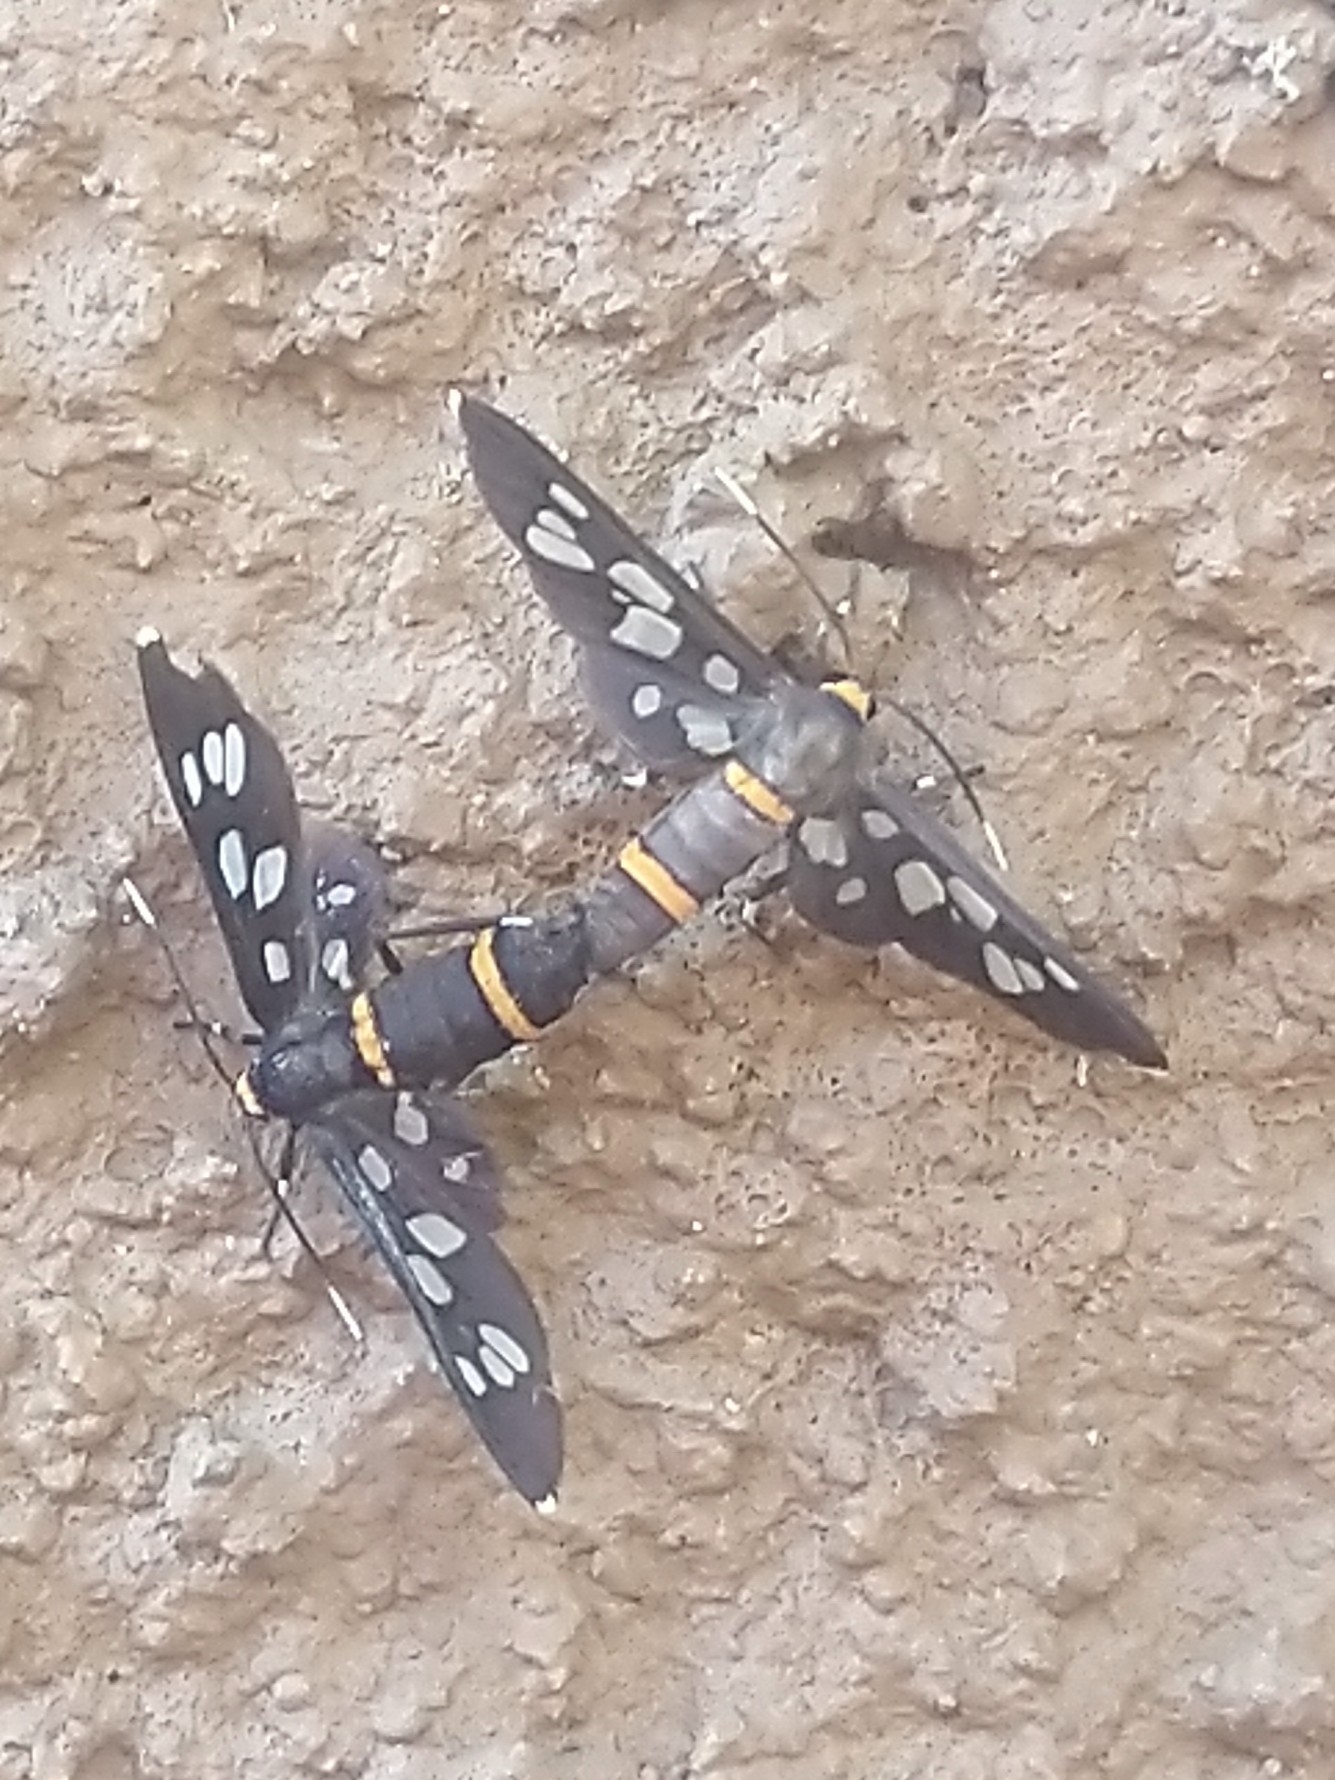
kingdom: Animalia
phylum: Arthropoda
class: Insecta
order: Lepidoptera
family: Erebidae
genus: Amata
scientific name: Amata cyssea
